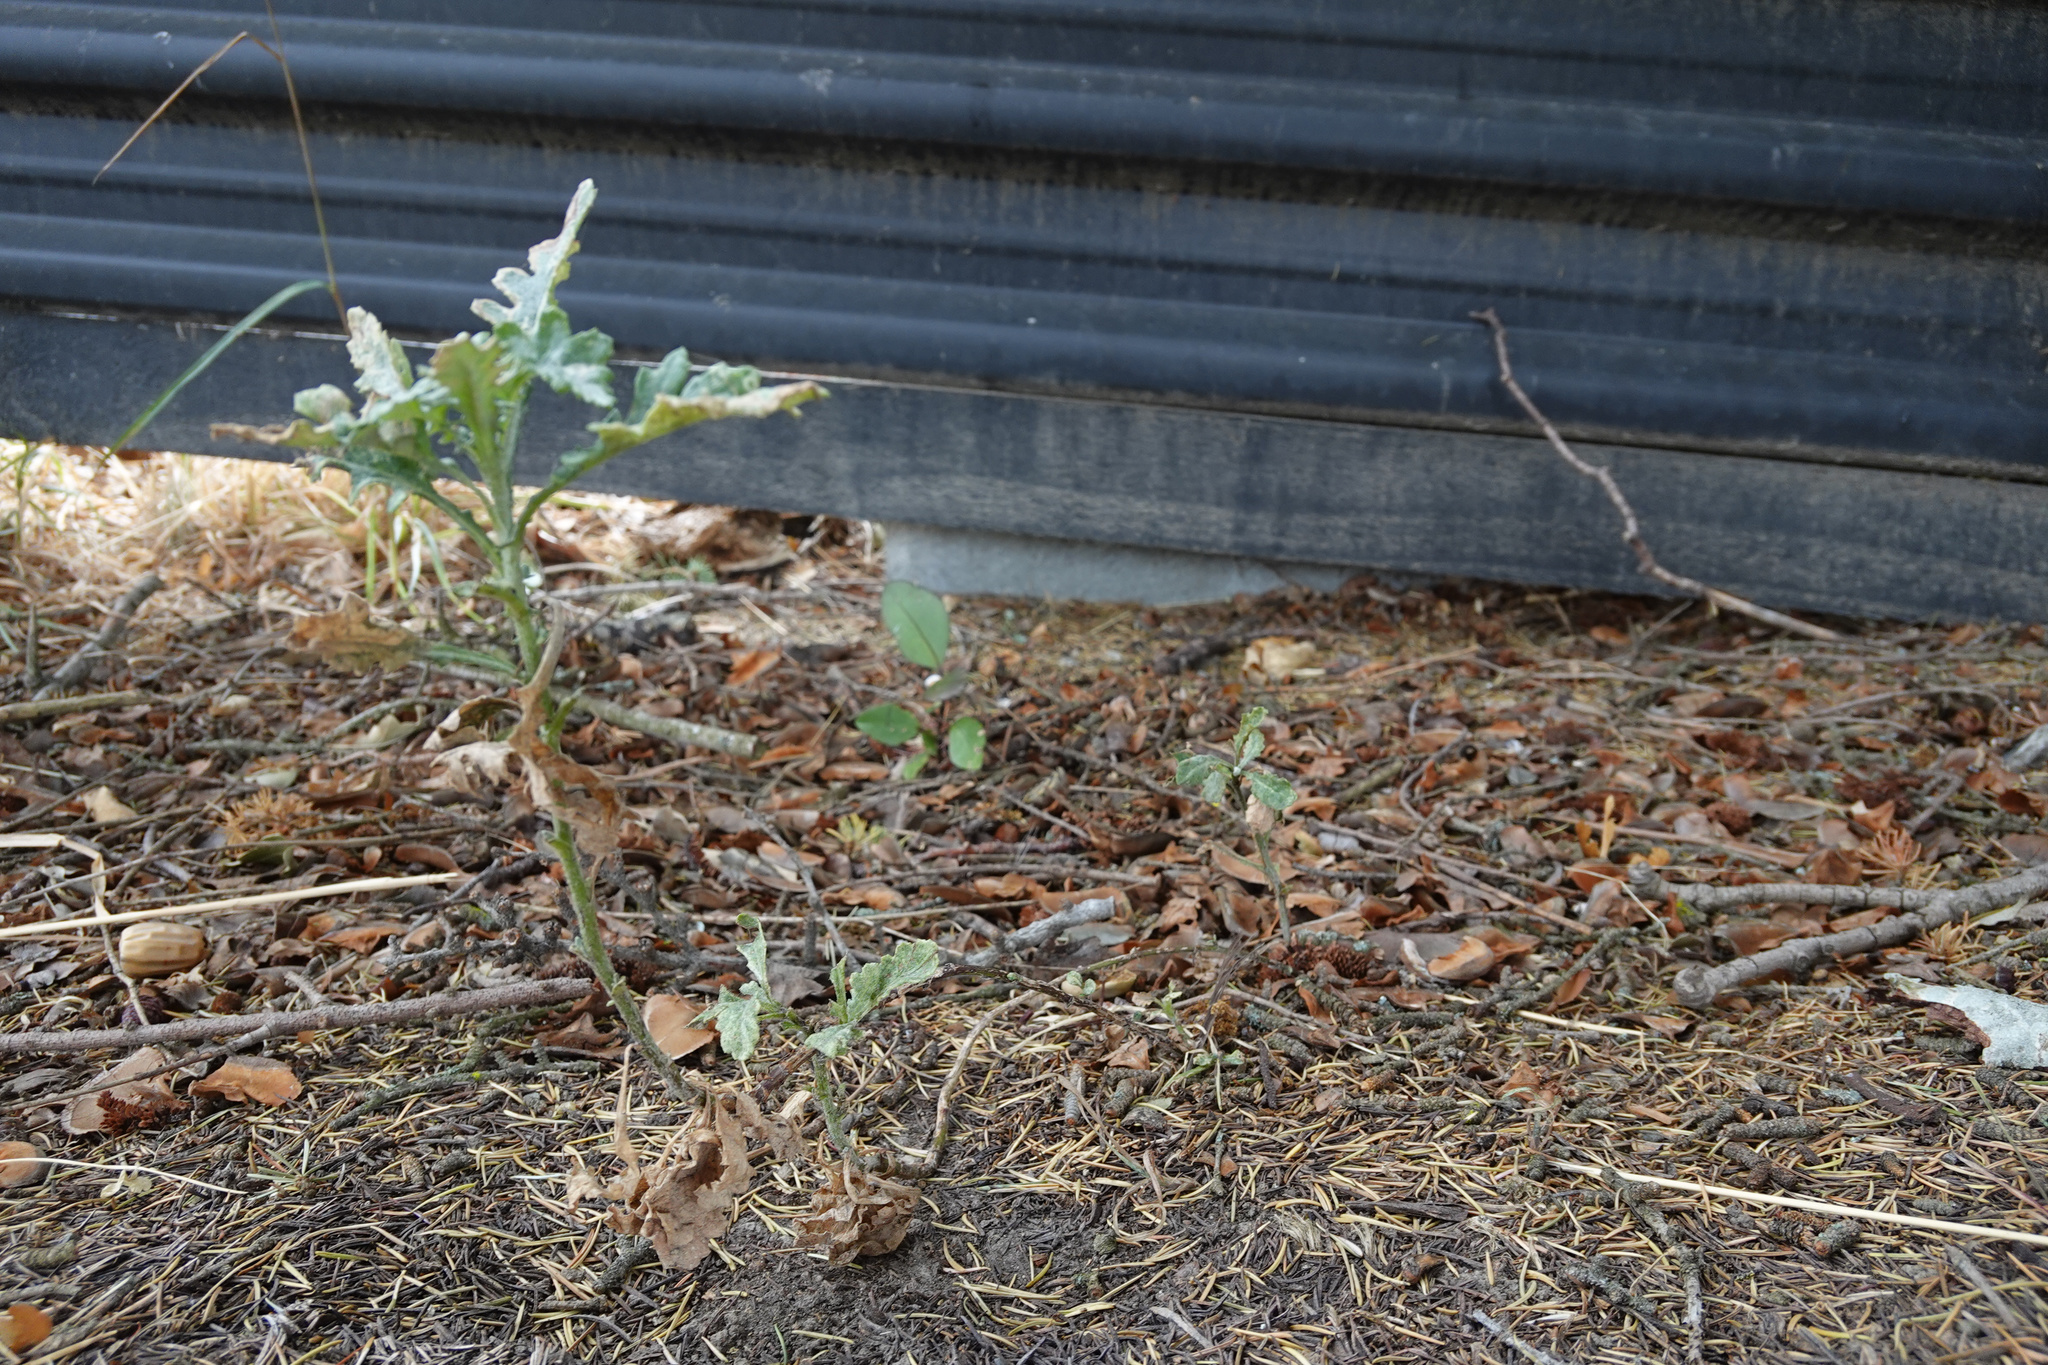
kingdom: Plantae
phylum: Tracheophyta
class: Magnoliopsida
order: Asterales
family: Asteraceae
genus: Senecio
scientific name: Senecio glomeratus
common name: Cutleaf burnweed
